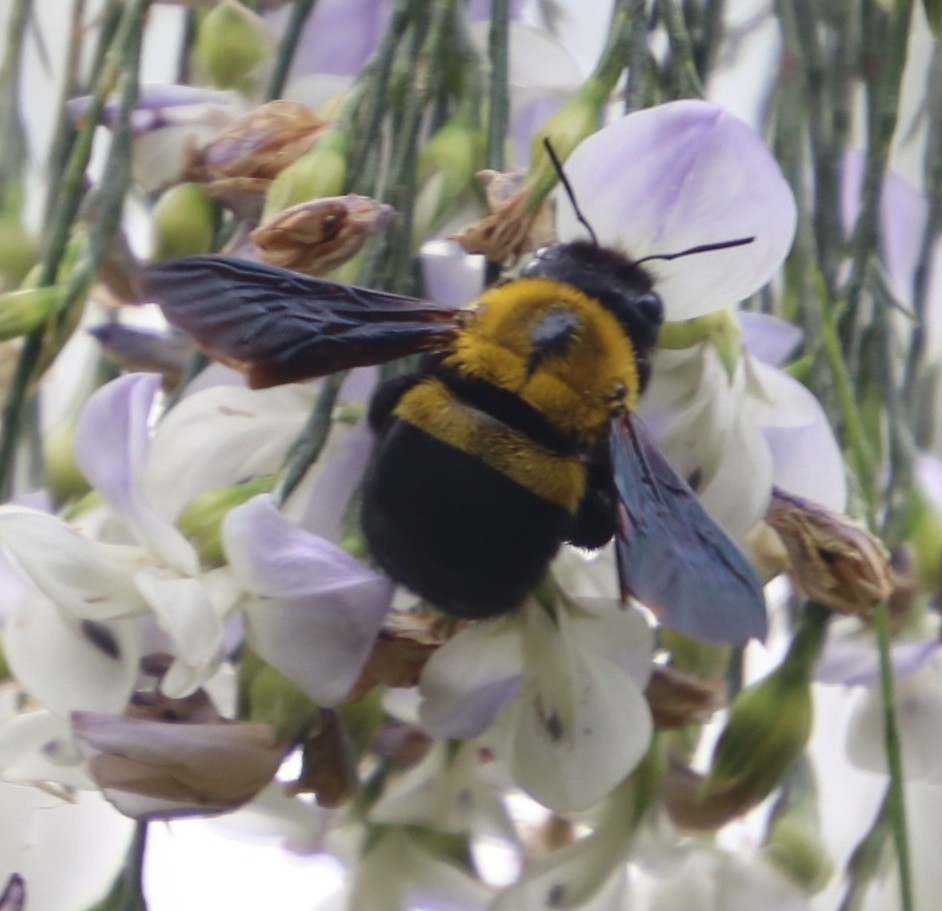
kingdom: Animalia
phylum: Arthropoda
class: Insecta
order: Hymenoptera
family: Apidae
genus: Xylocopa
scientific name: Xylocopa watmoughi
